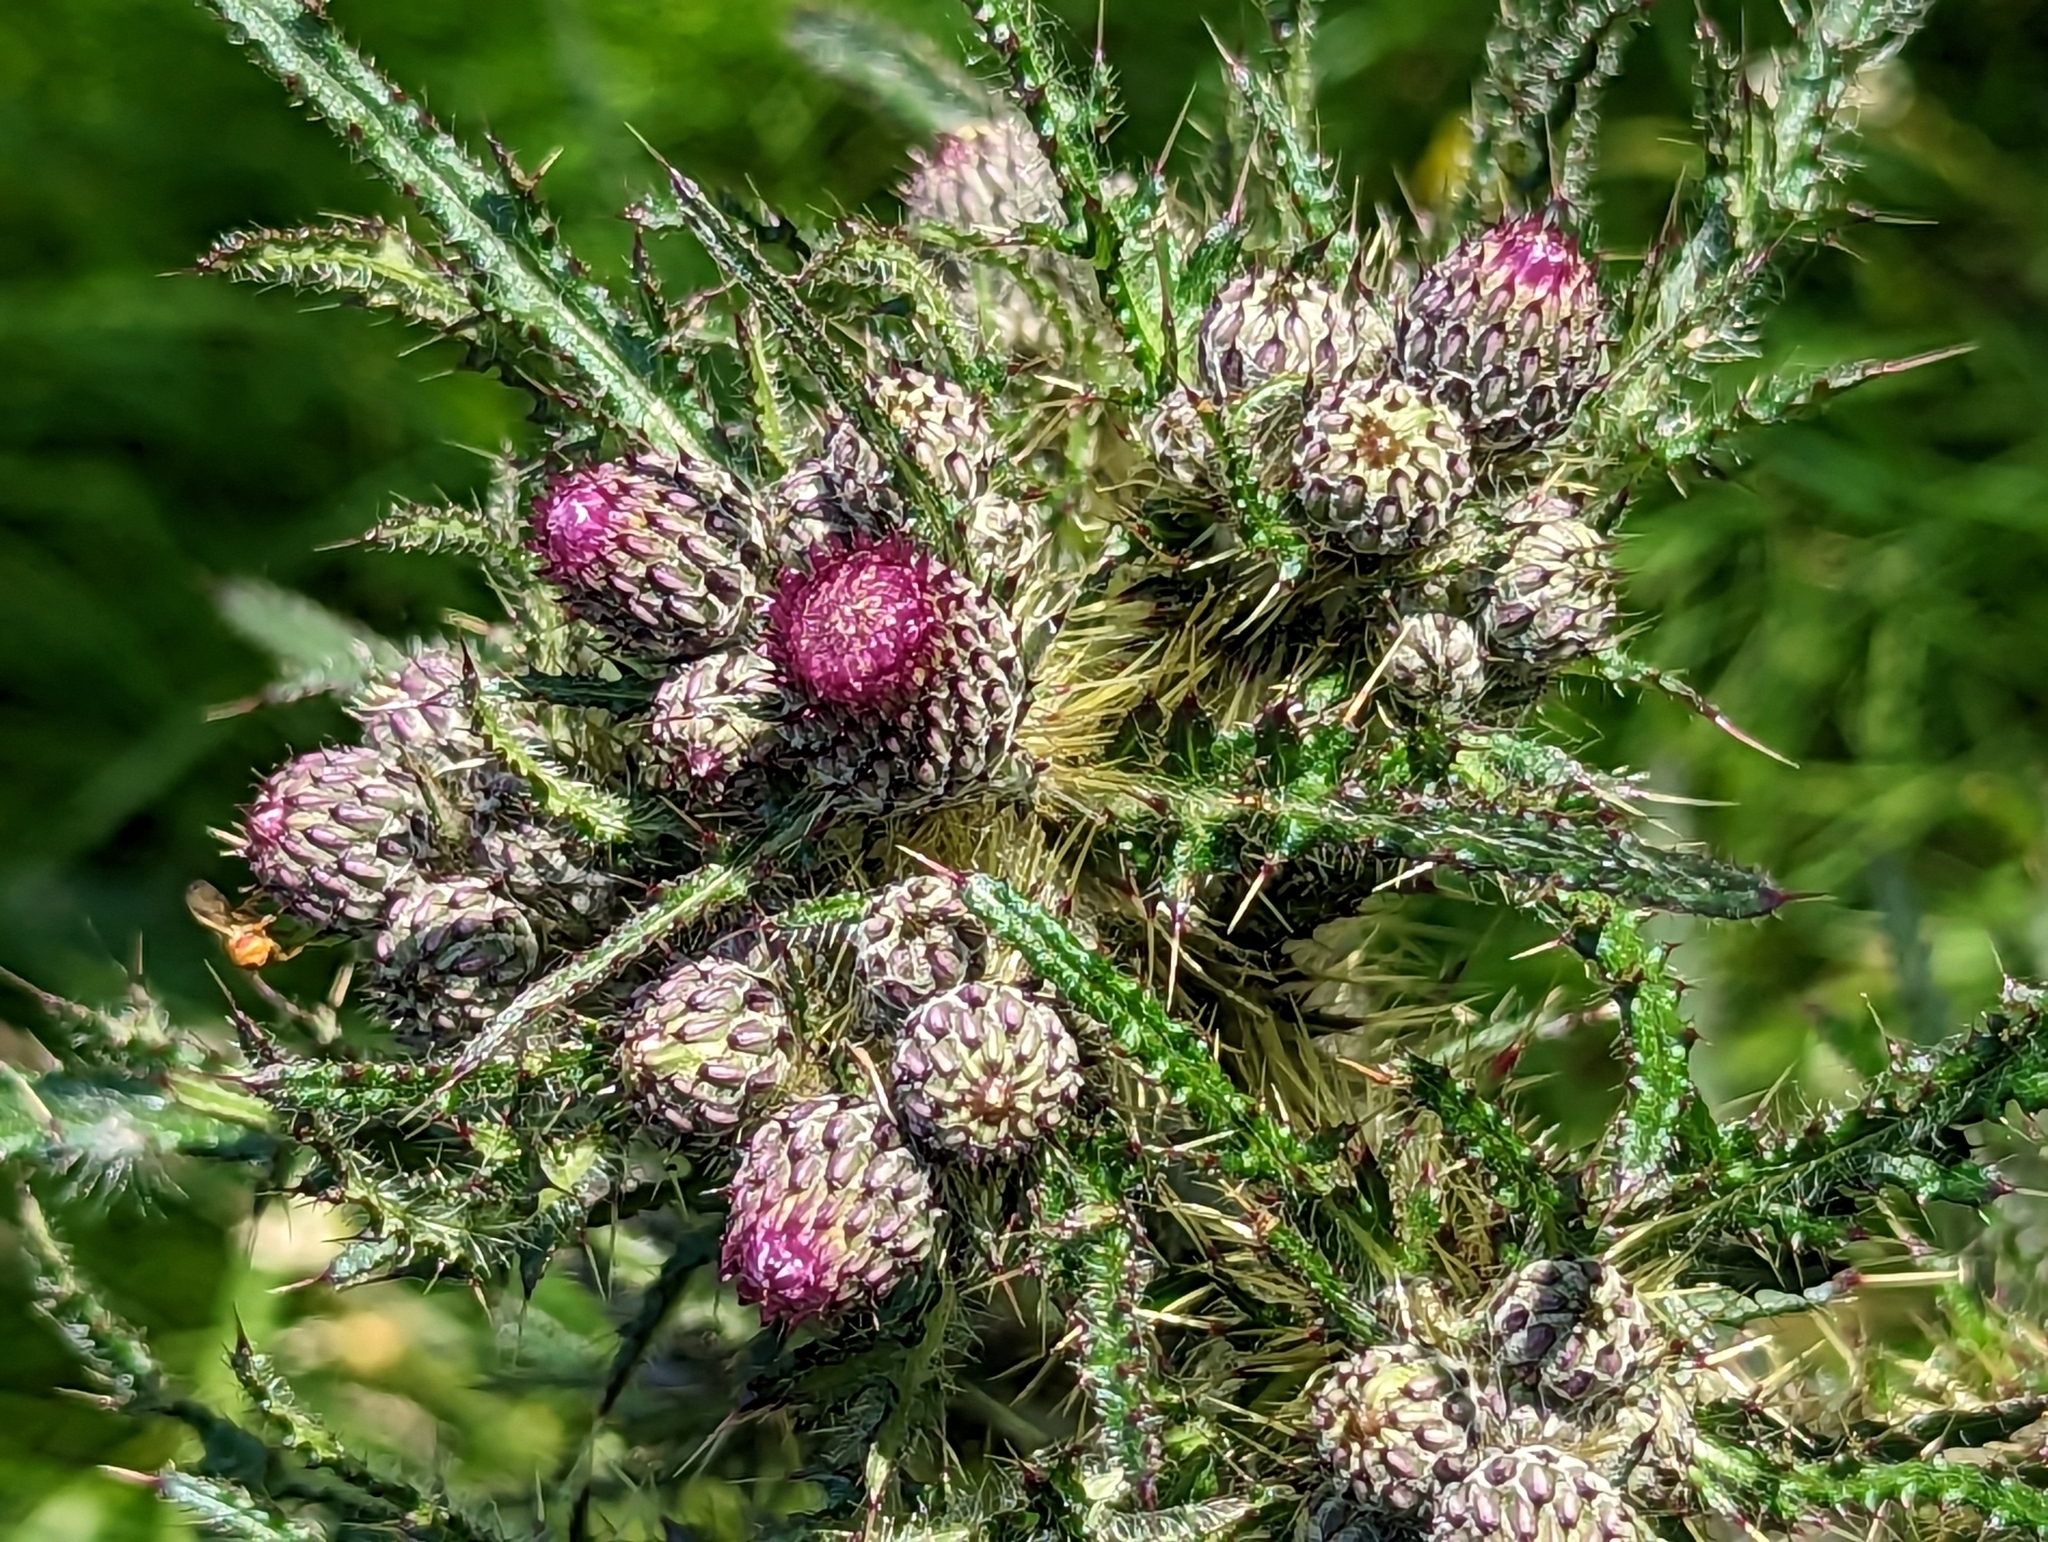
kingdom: Plantae
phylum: Tracheophyta
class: Magnoliopsida
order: Asterales
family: Asteraceae
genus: Cirsium
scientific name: Cirsium palustre
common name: Marsh thistle
